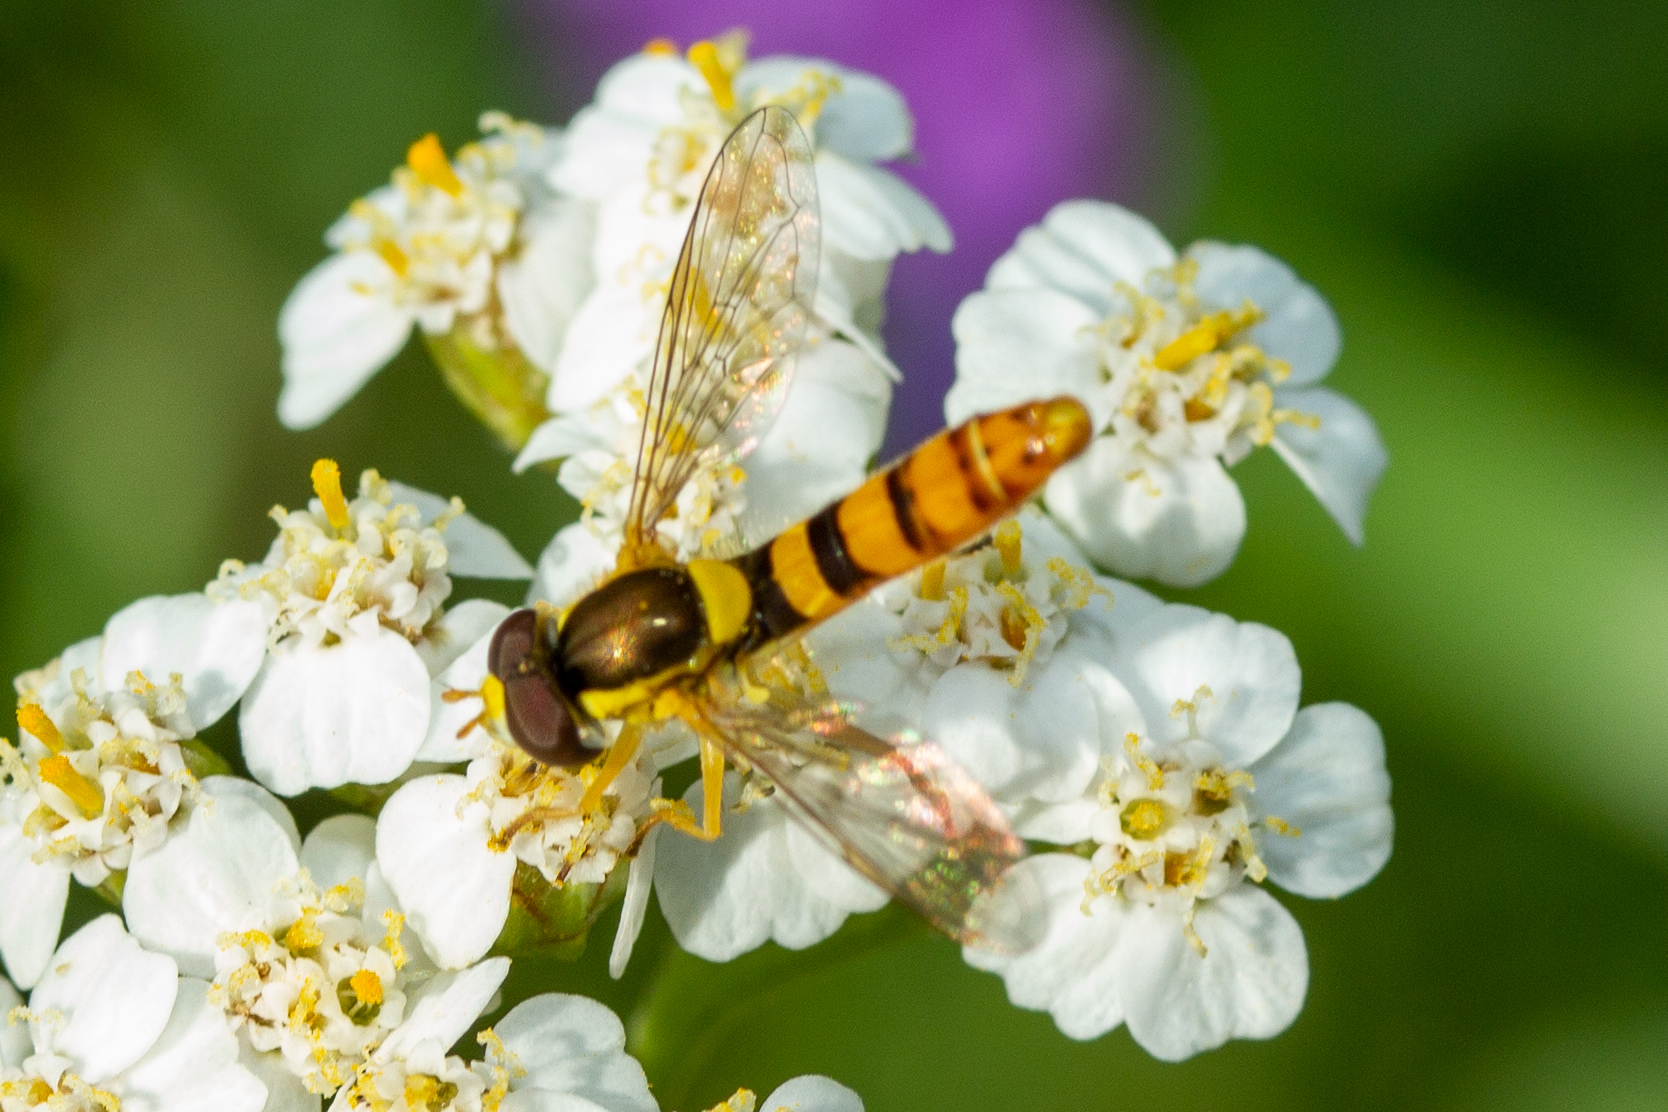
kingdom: Animalia
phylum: Arthropoda
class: Insecta
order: Diptera
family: Syrphidae
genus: Sphaerophoria
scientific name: Sphaerophoria philantha
